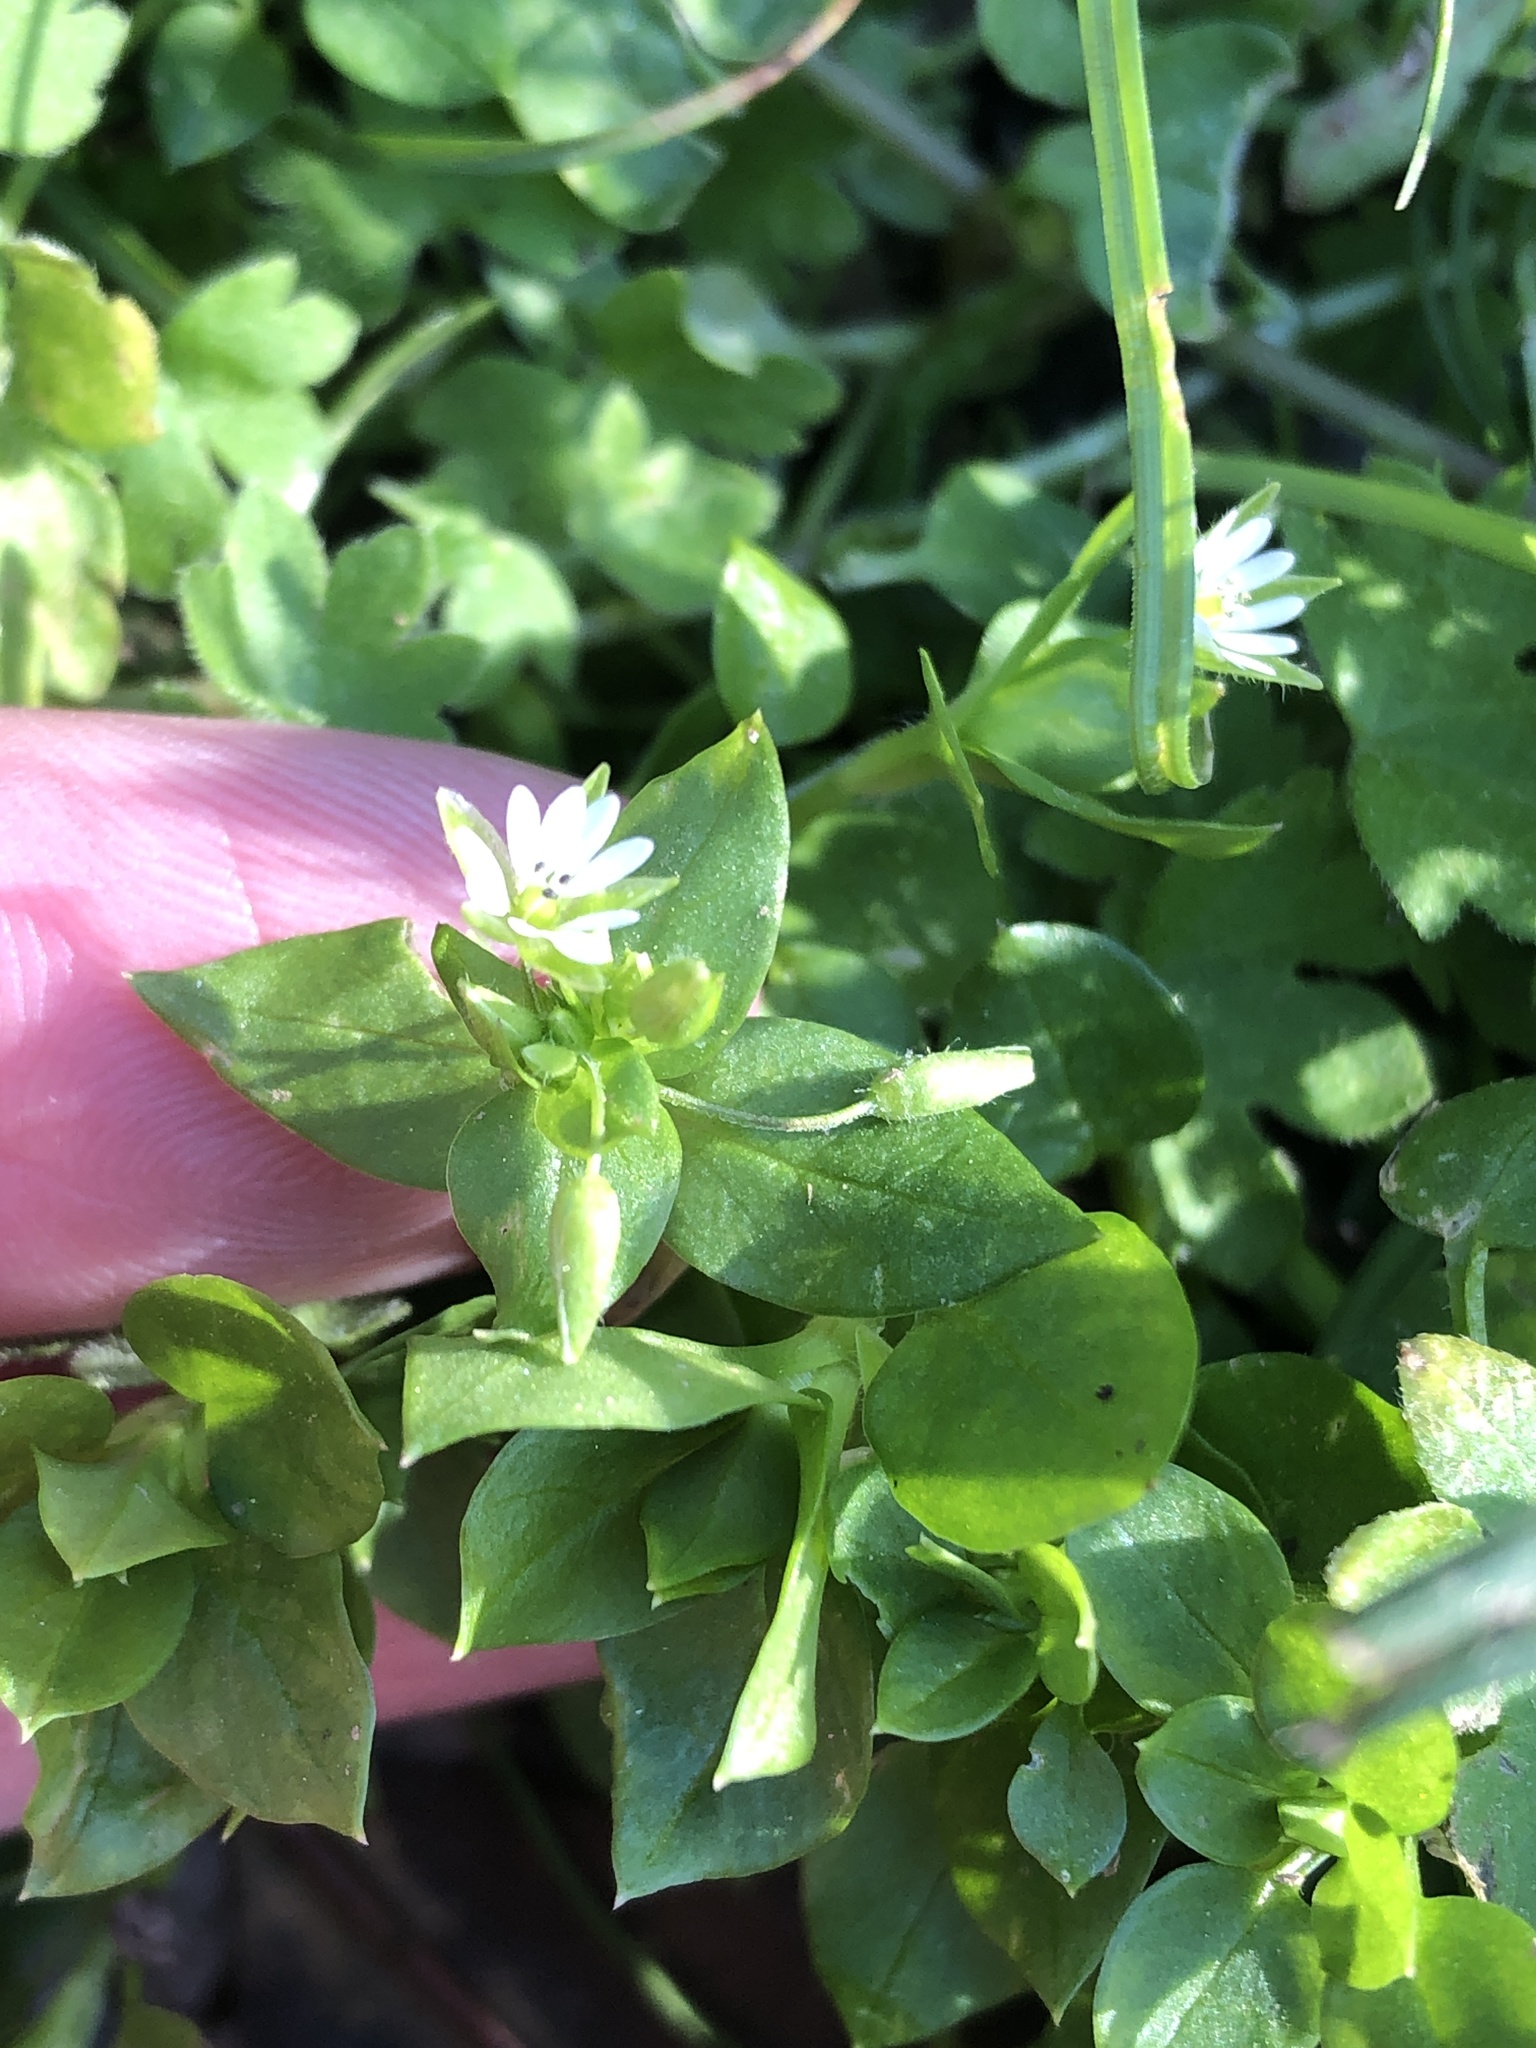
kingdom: Plantae
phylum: Tracheophyta
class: Magnoliopsida
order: Caryophyllales
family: Caryophyllaceae
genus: Stellaria
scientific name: Stellaria media
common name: Common chickweed
